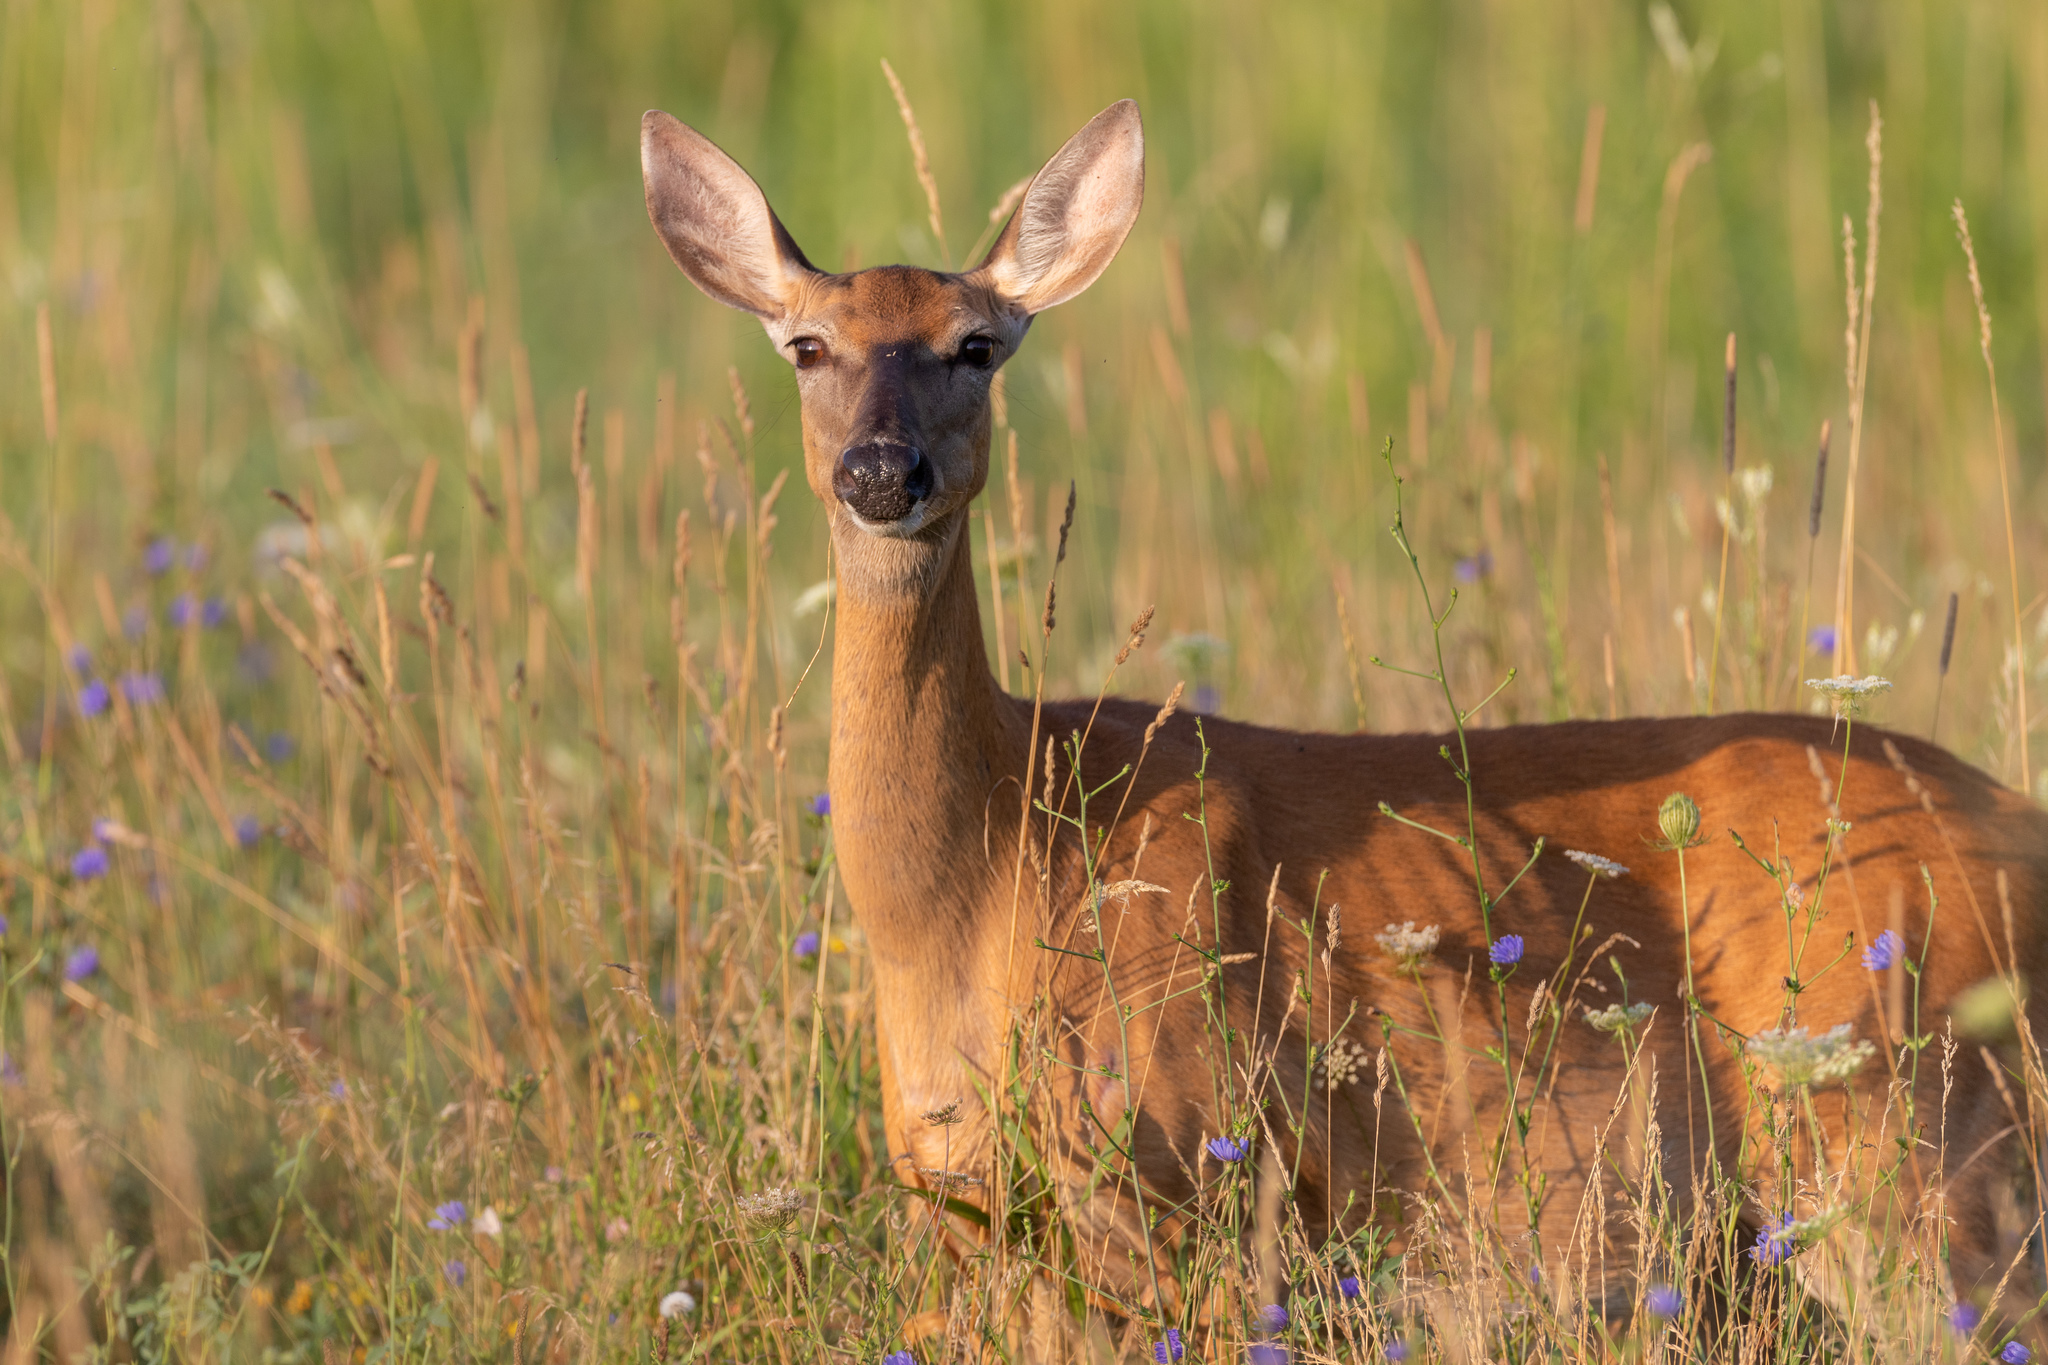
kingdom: Animalia
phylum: Chordata
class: Mammalia
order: Artiodactyla
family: Cervidae
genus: Odocoileus
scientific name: Odocoileus virginianus
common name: White-tailed deer
